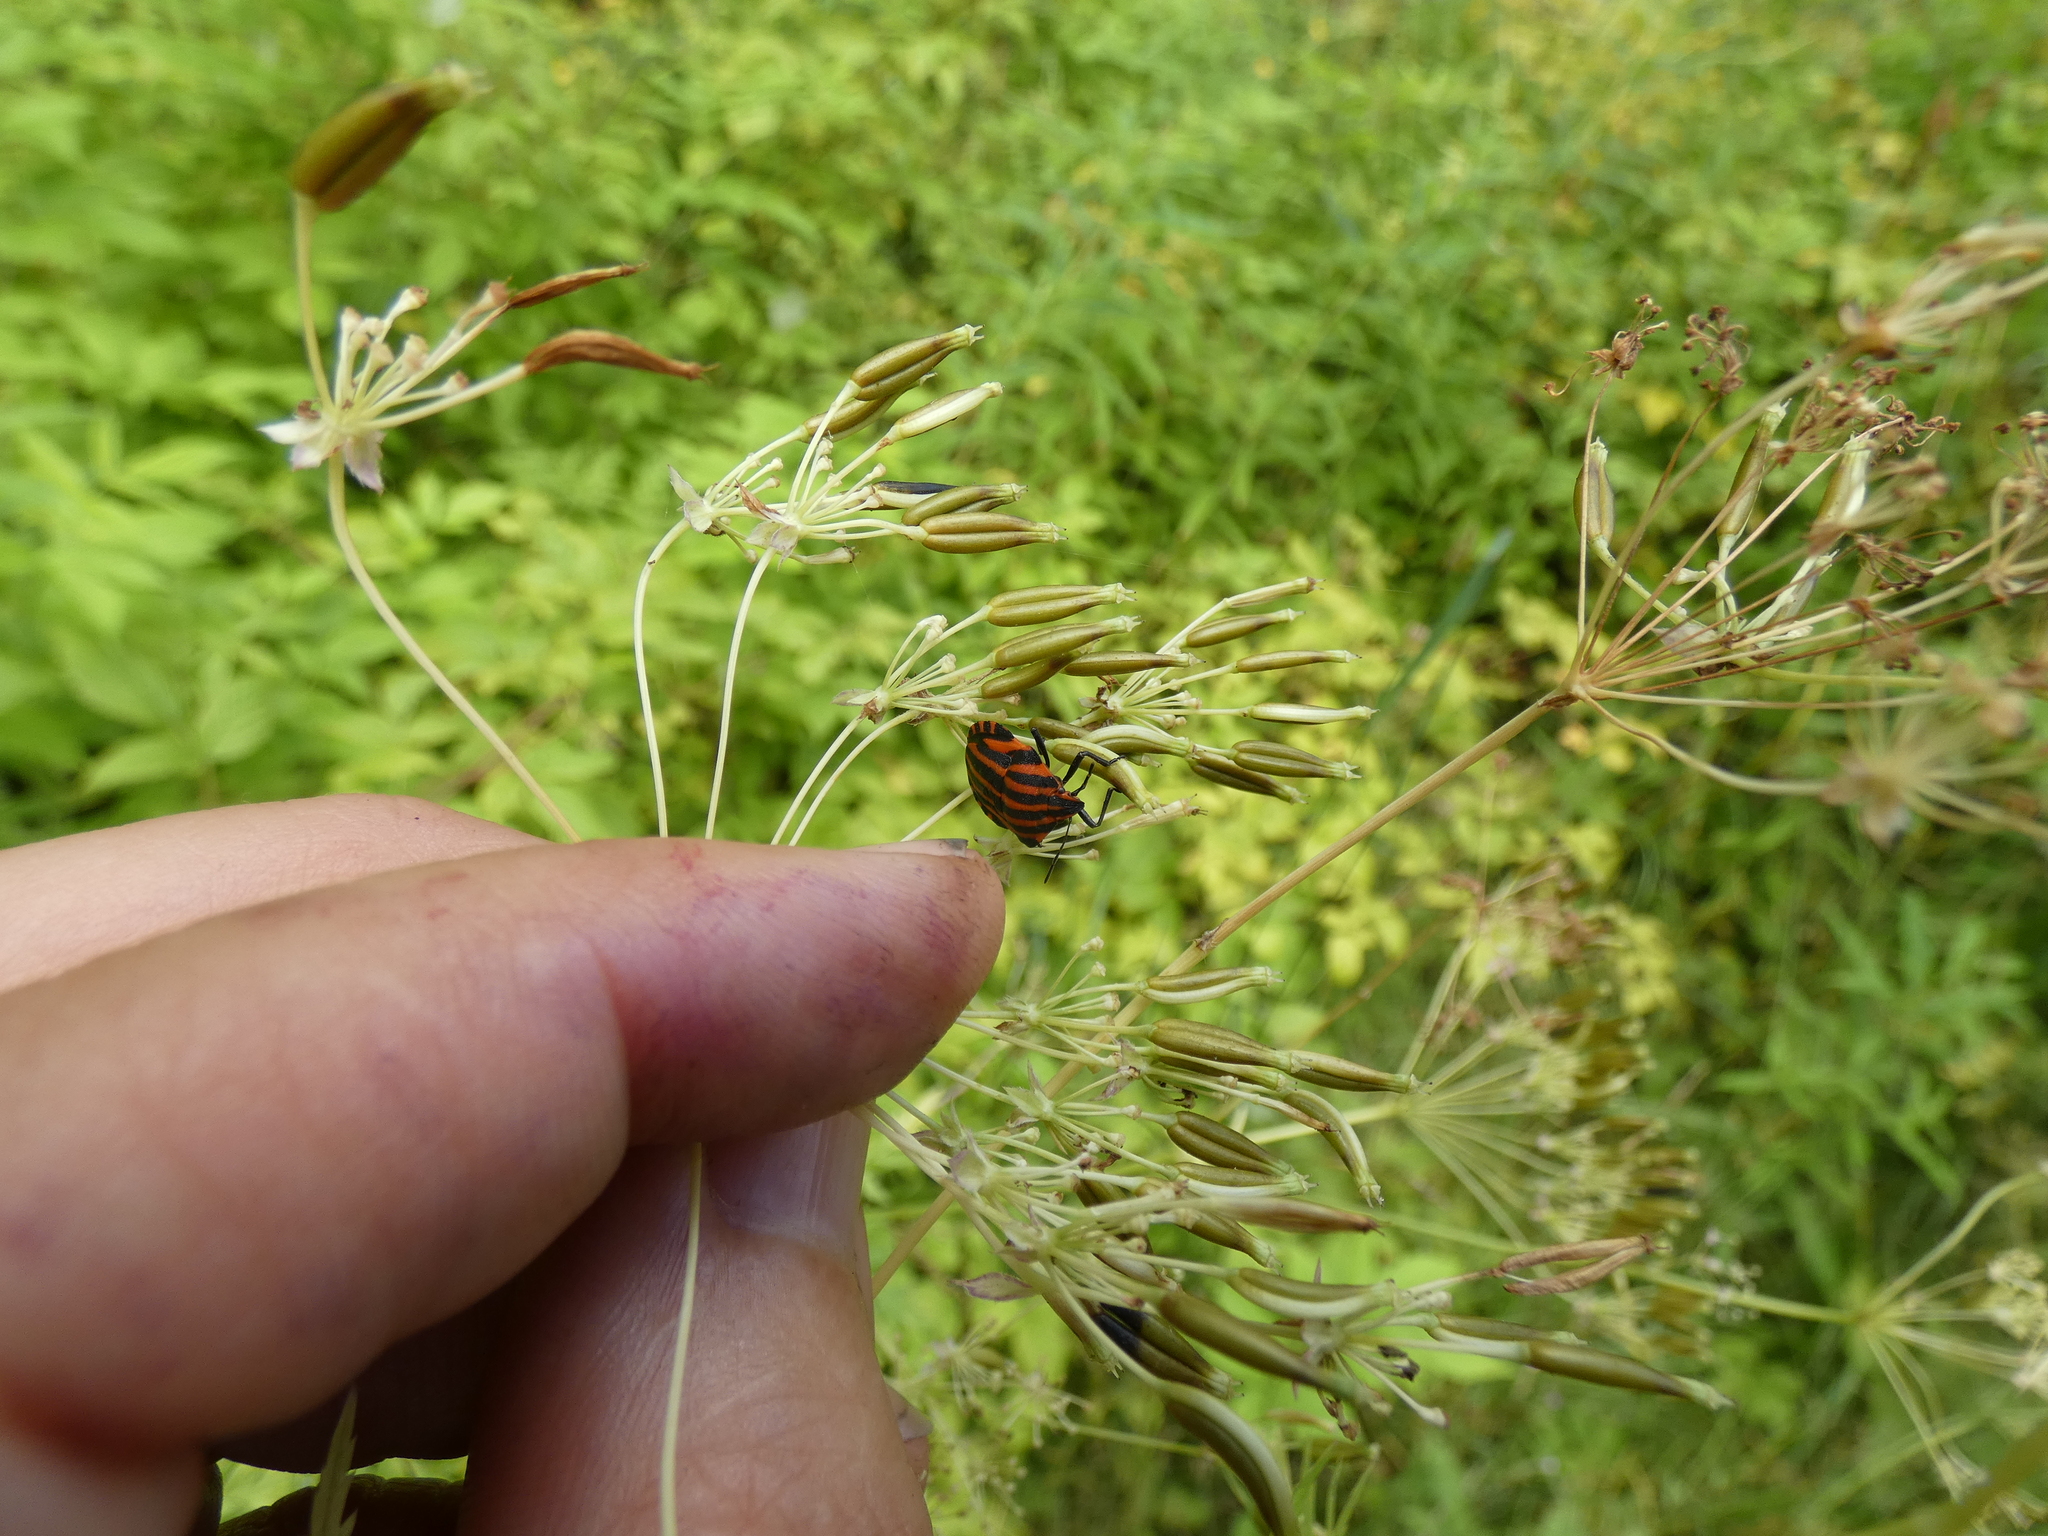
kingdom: Animalia
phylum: Arthropoda
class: Insecta
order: Hemiptera
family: Pentatomidae
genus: Graphosoma
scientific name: Graphosoma italicum
